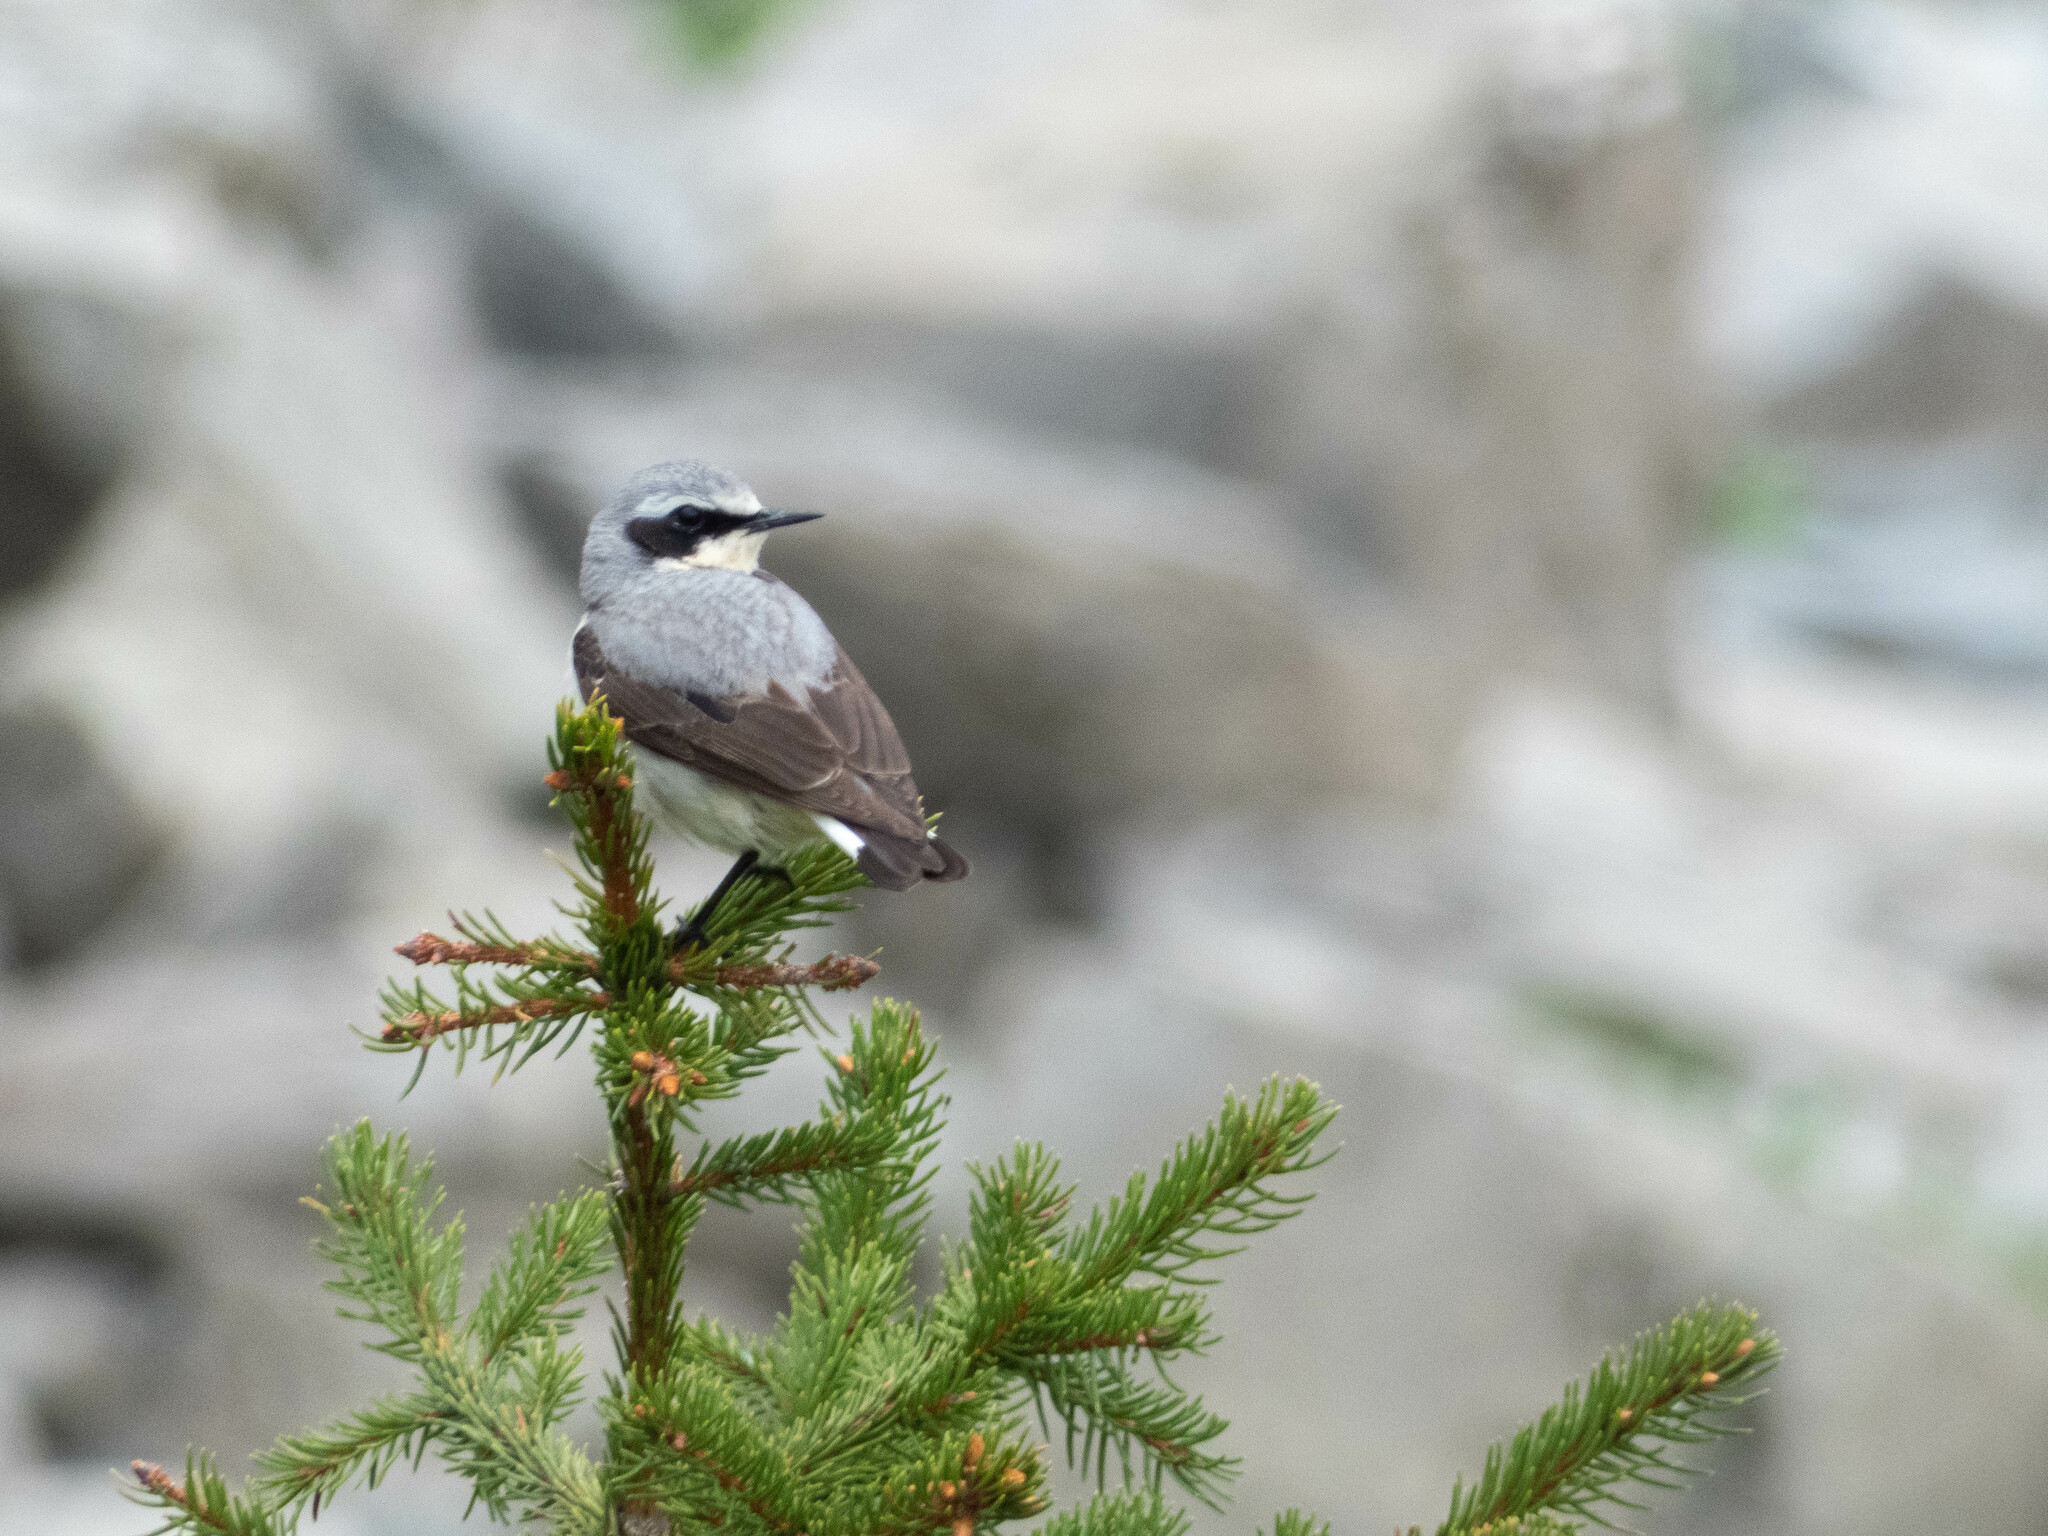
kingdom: Animalia
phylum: Chordata
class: Aves
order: Passeriformes
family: Muscicapidae
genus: Oenanthe
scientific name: Oenanthe oenanthe
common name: Northern wheatear
